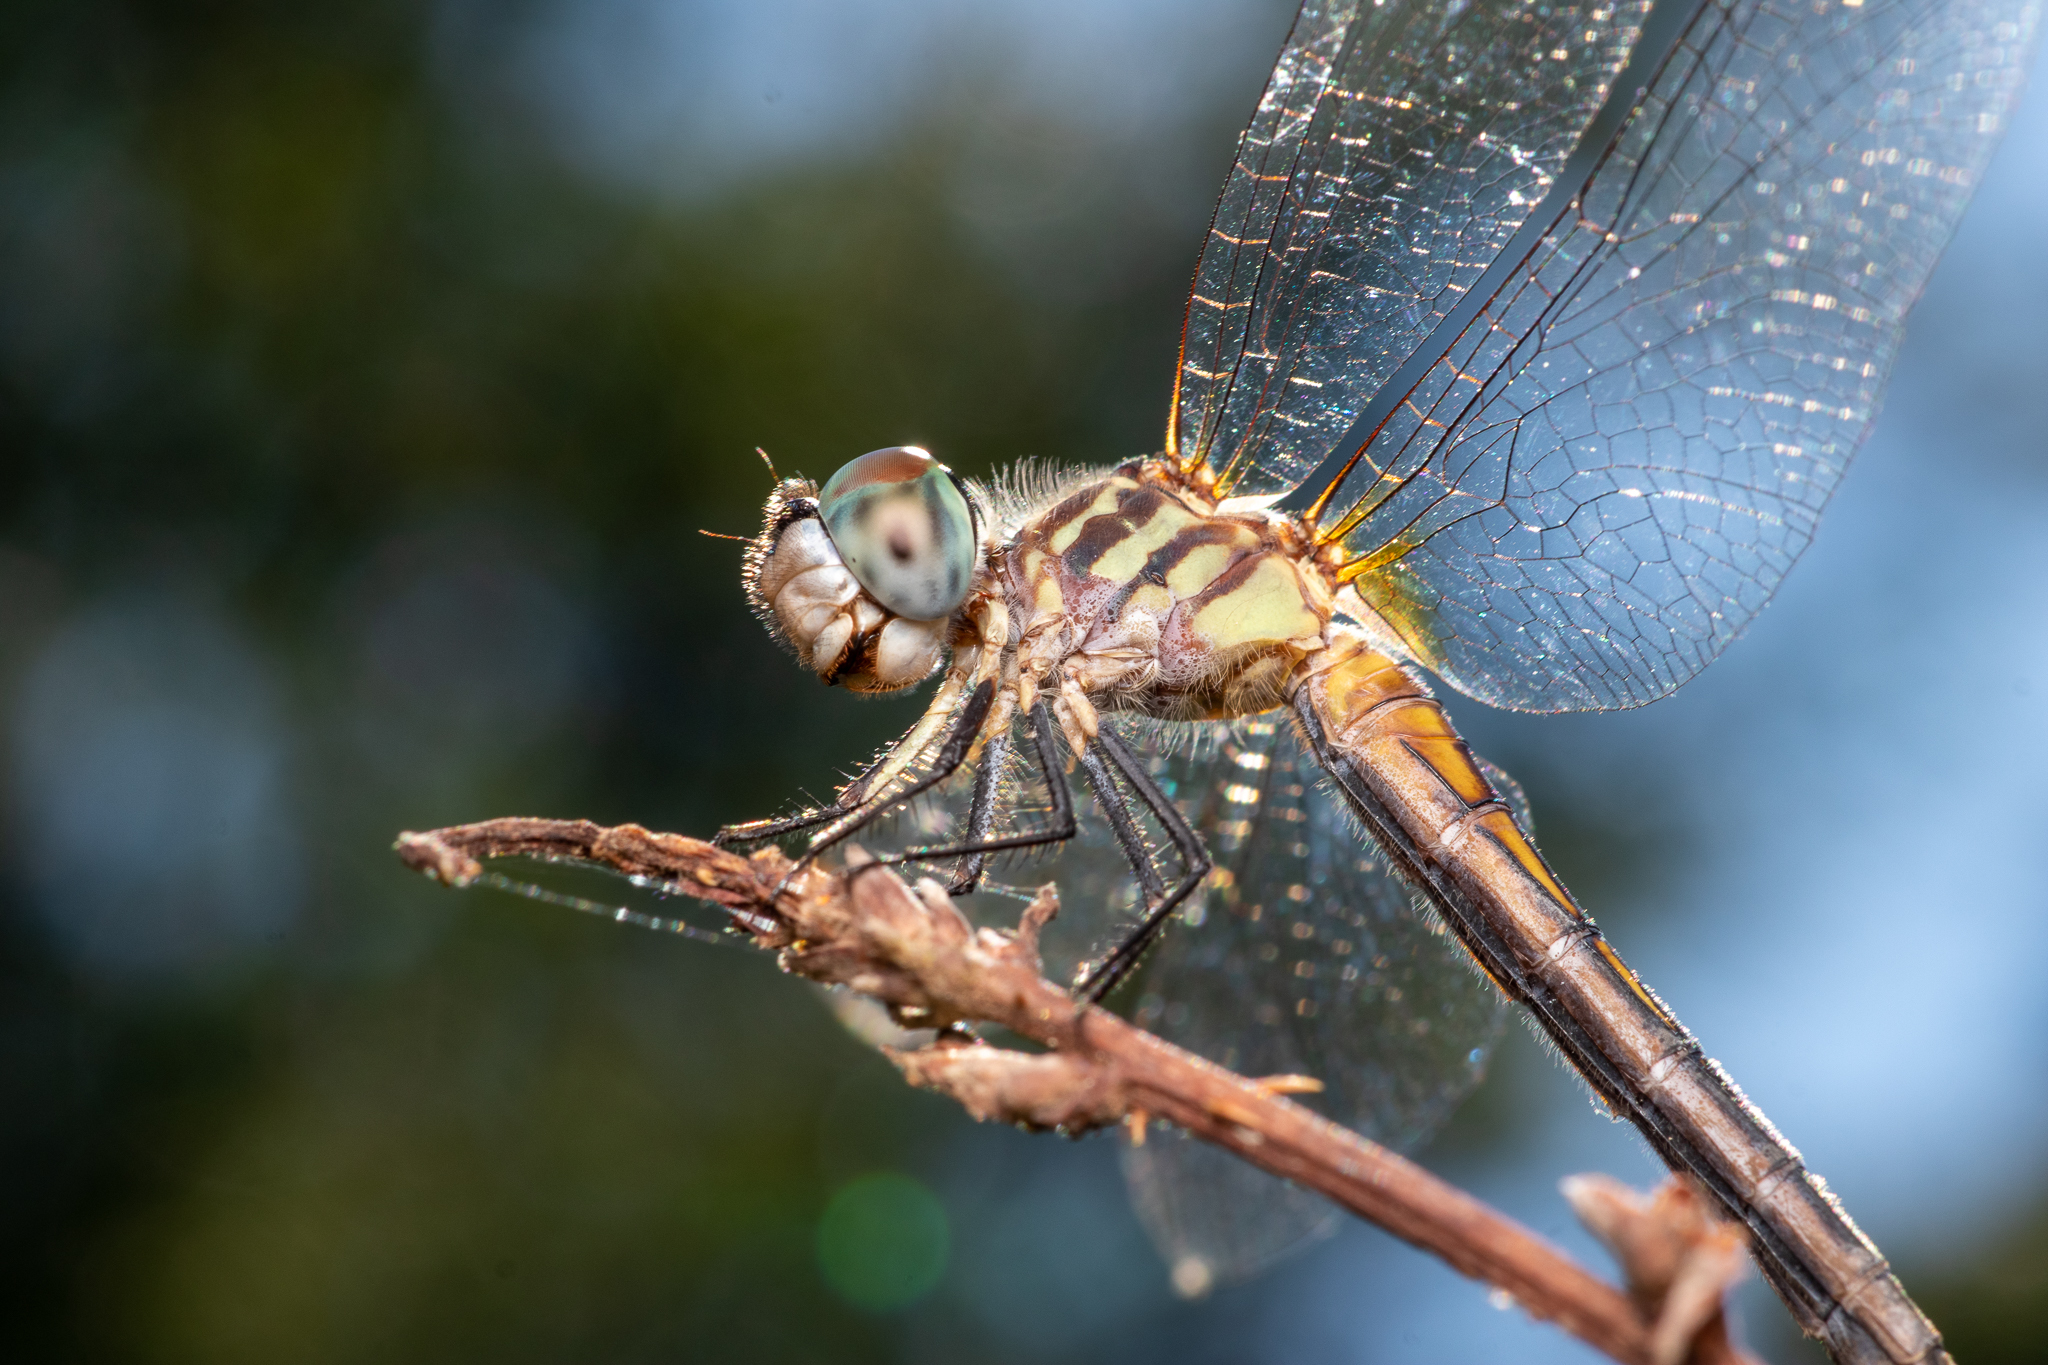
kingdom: Animalia
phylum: Arthropoda
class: Insecta
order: Odonata
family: Libellulidae
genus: Pachydiplax
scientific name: Pachydiplax longipennis
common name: Blue dasher
